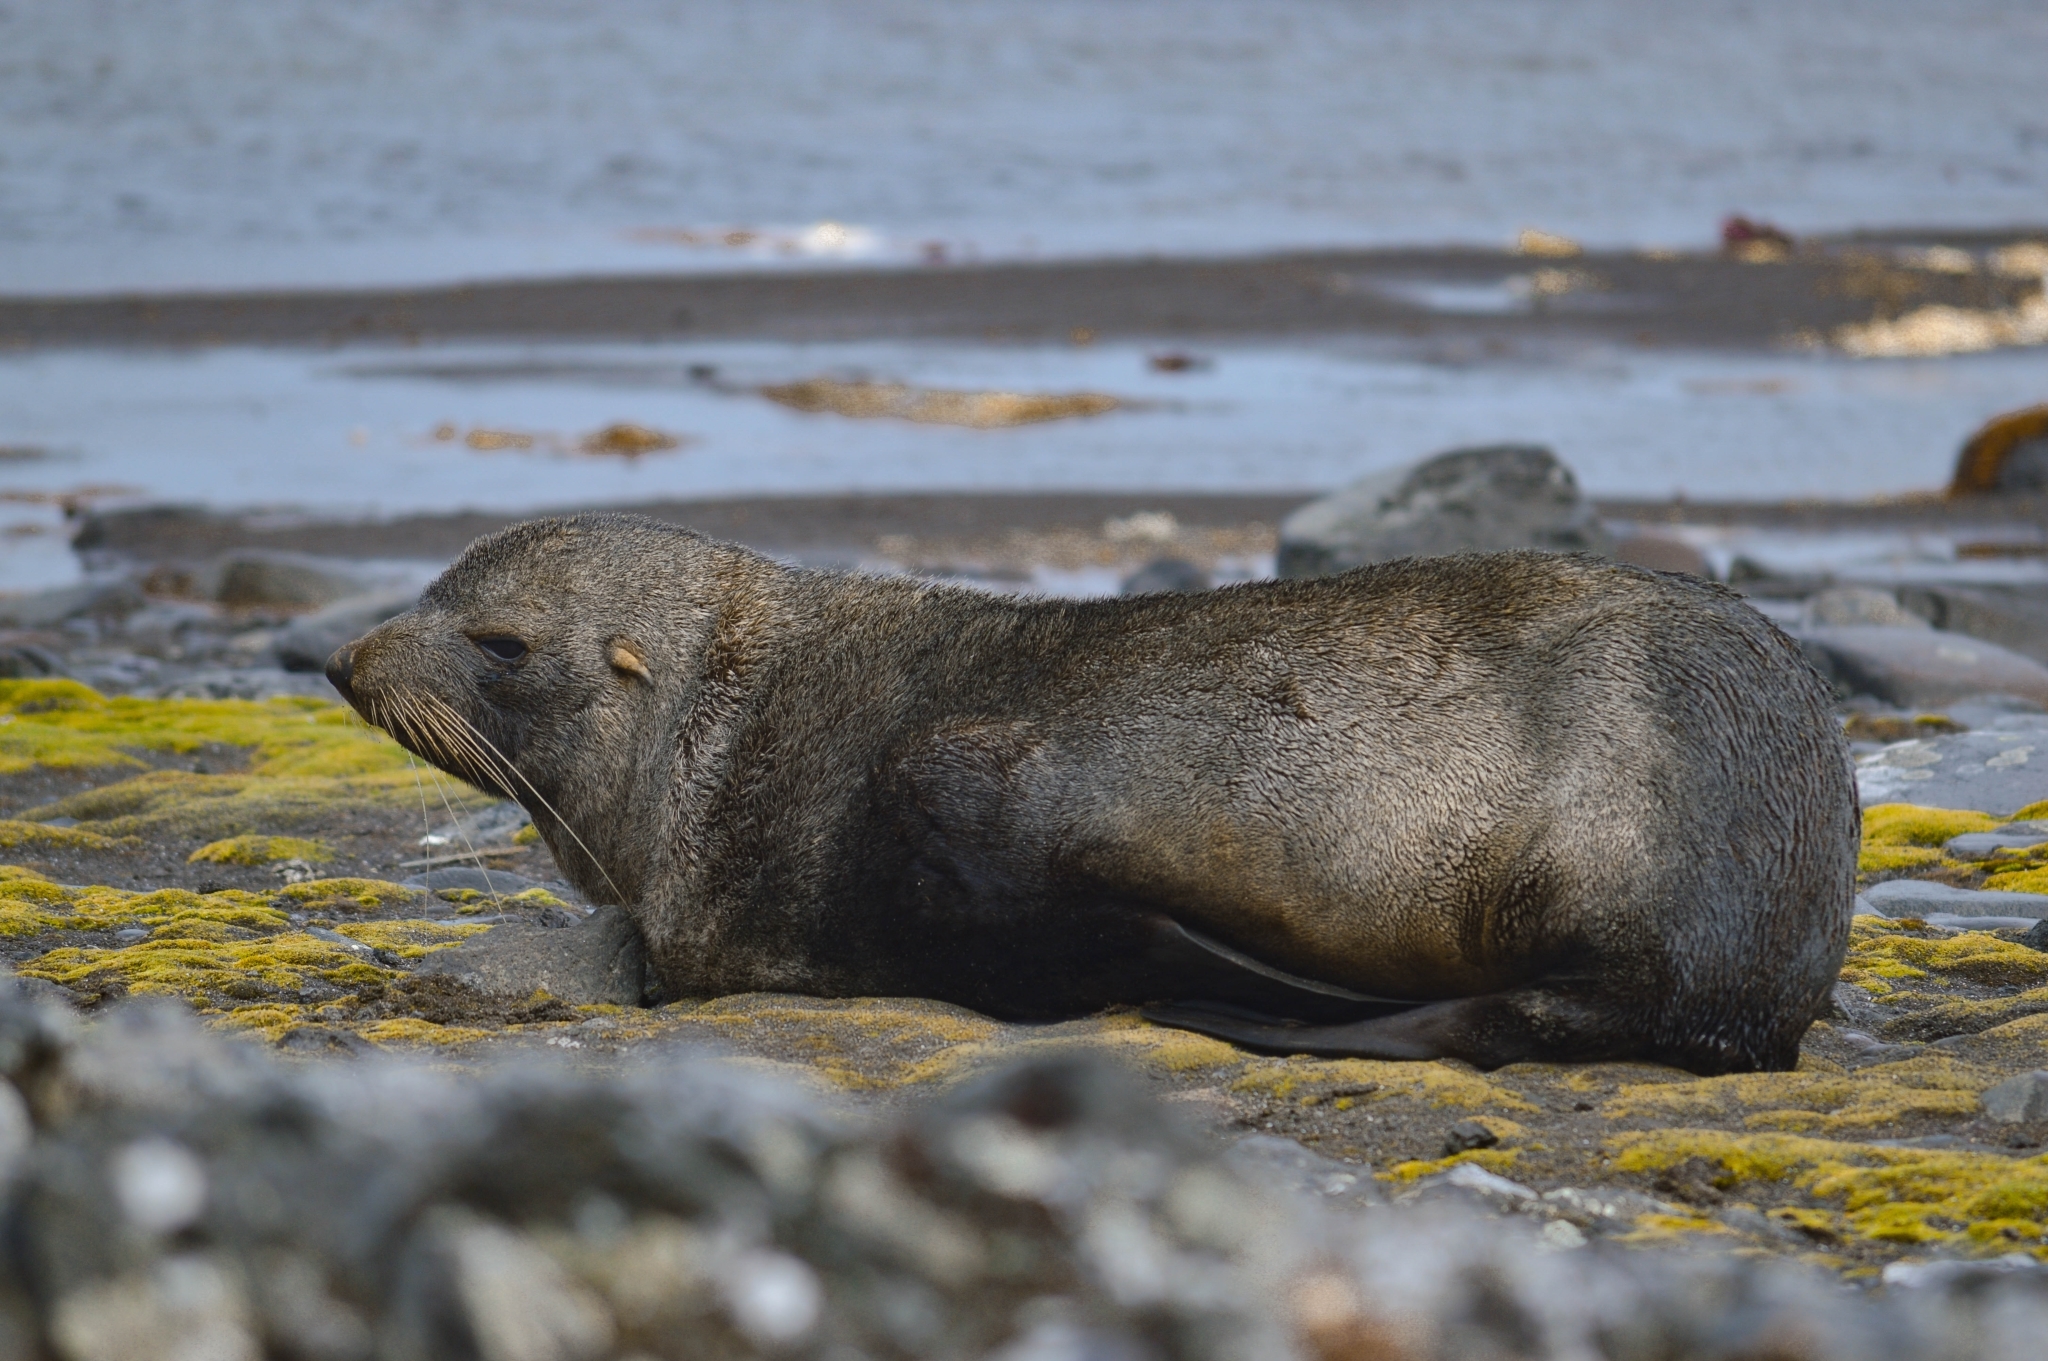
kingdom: Animalia
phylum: Chordata
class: Mammalia
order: Carnivora
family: Otariidae
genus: Arctocephalus
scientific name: Arctocephalus australis
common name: South american fur seal
